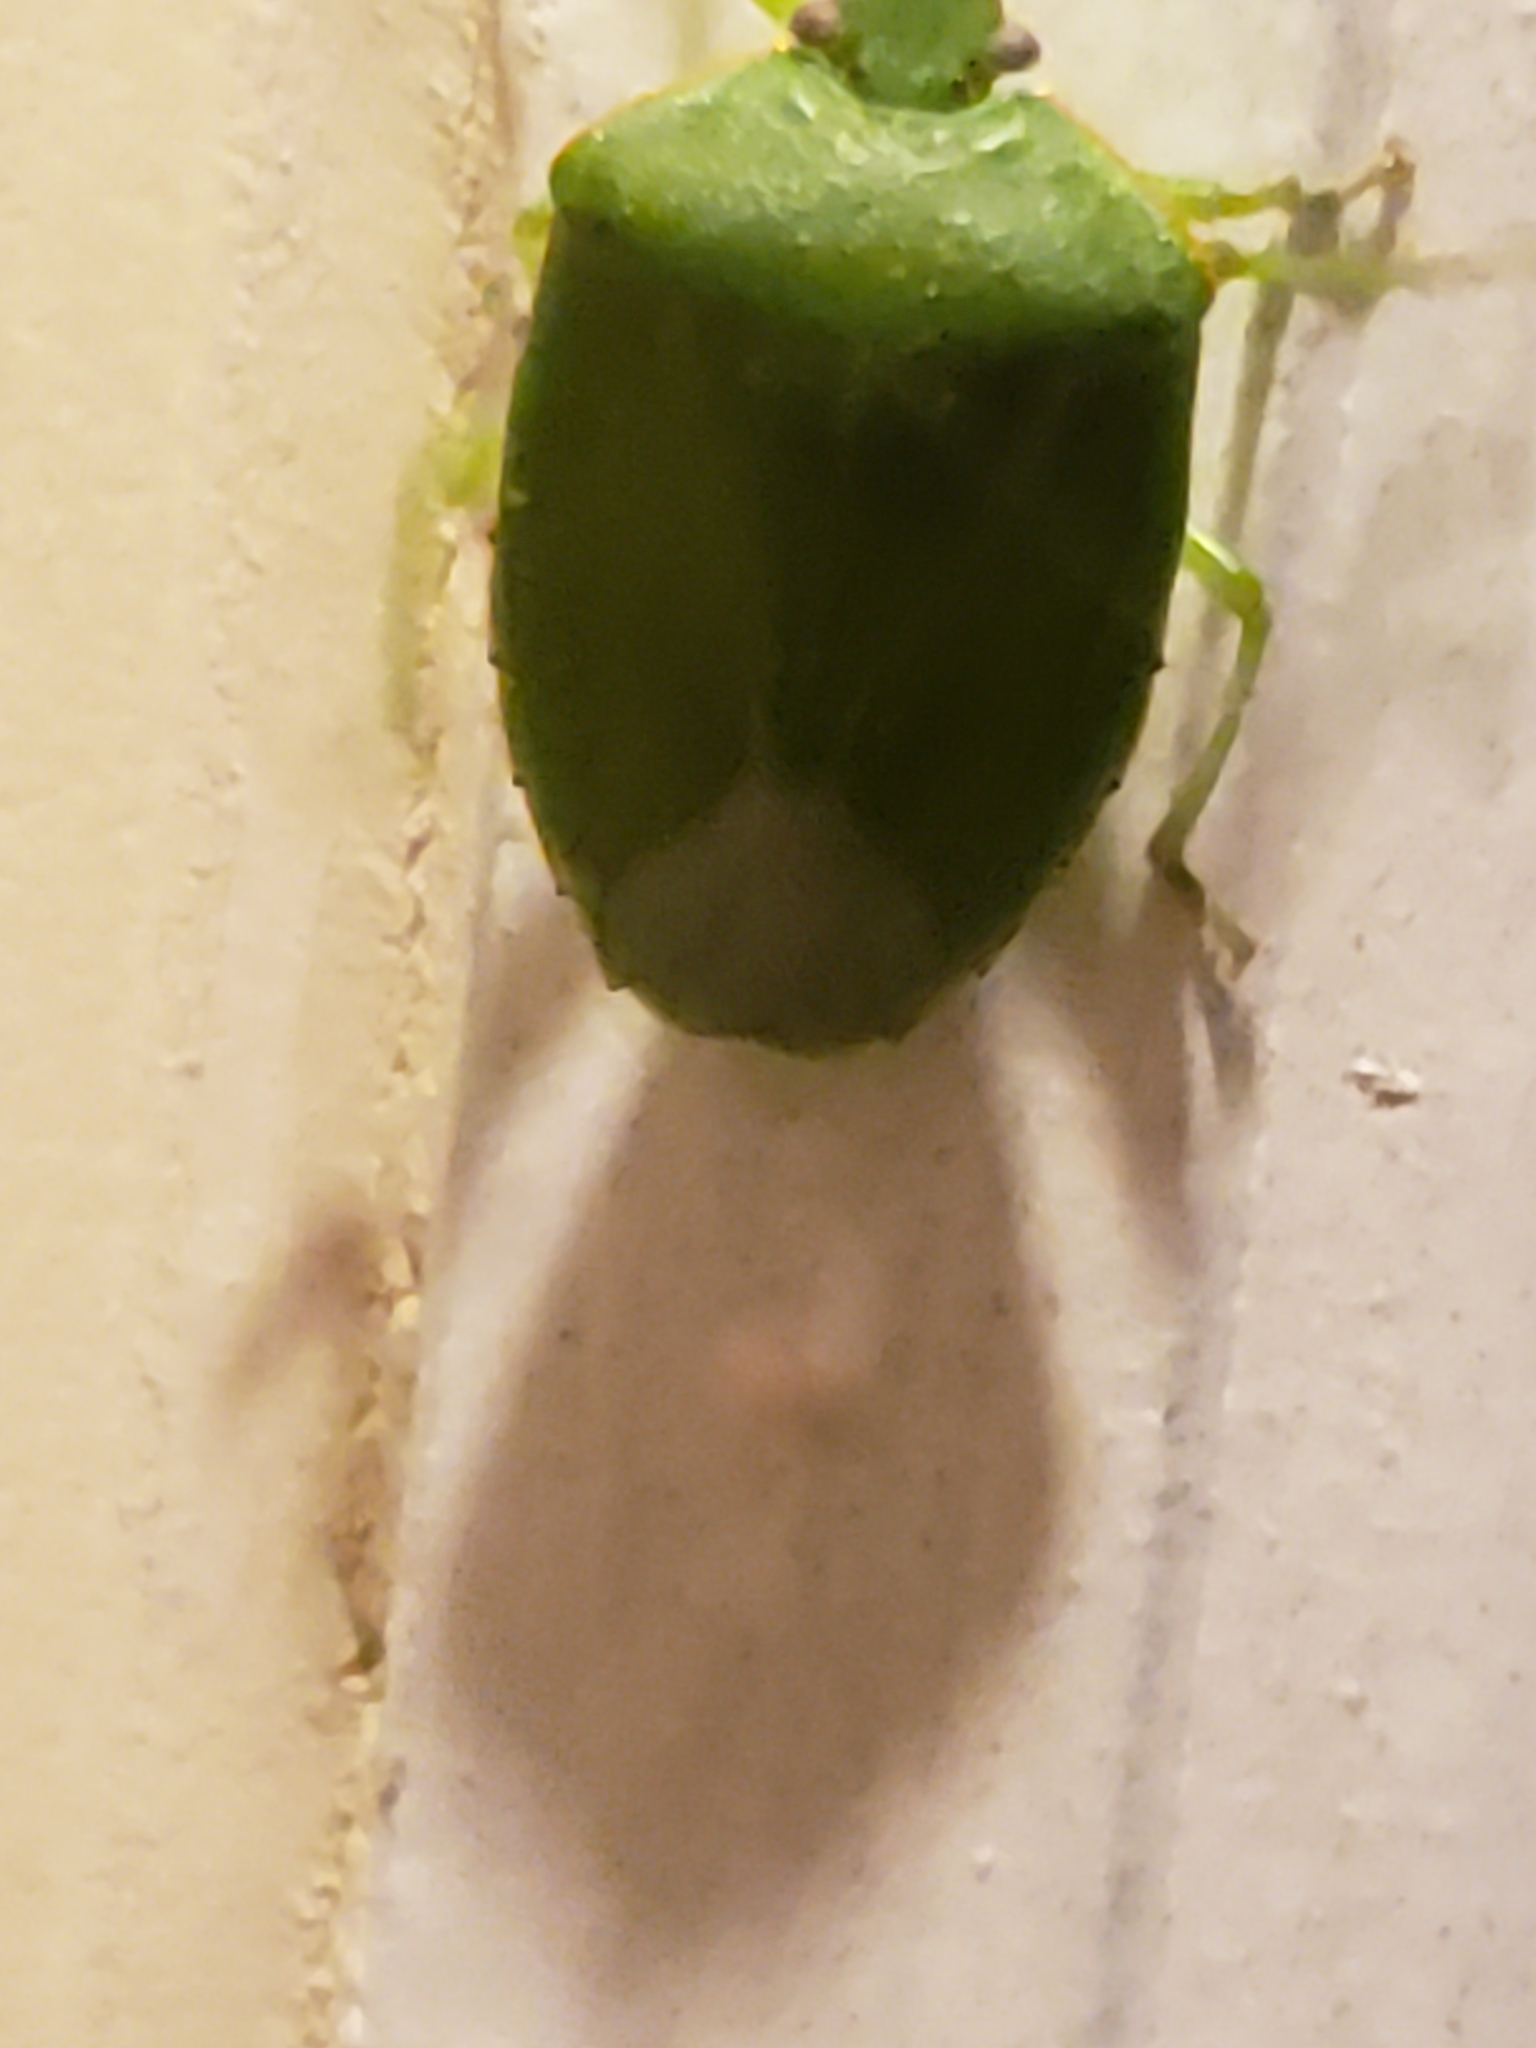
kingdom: Animalia
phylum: Arthropoda
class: Insecta
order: Hemiptera
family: Pentatomidae
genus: Chinavia
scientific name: Chinavia hilaris
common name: Green stink bug
